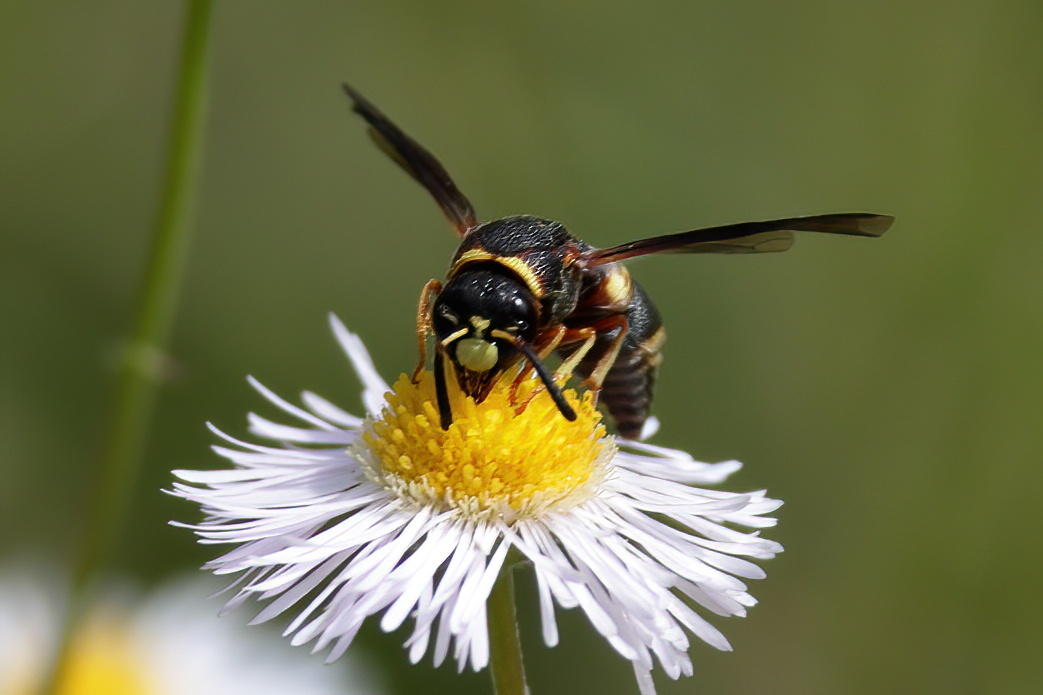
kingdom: Animalia
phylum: Arthropoda
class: Insecta
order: Hymenoptera
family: Eumenidae
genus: Euodynerus
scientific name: Euodynerus hidalgo
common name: Wasp
